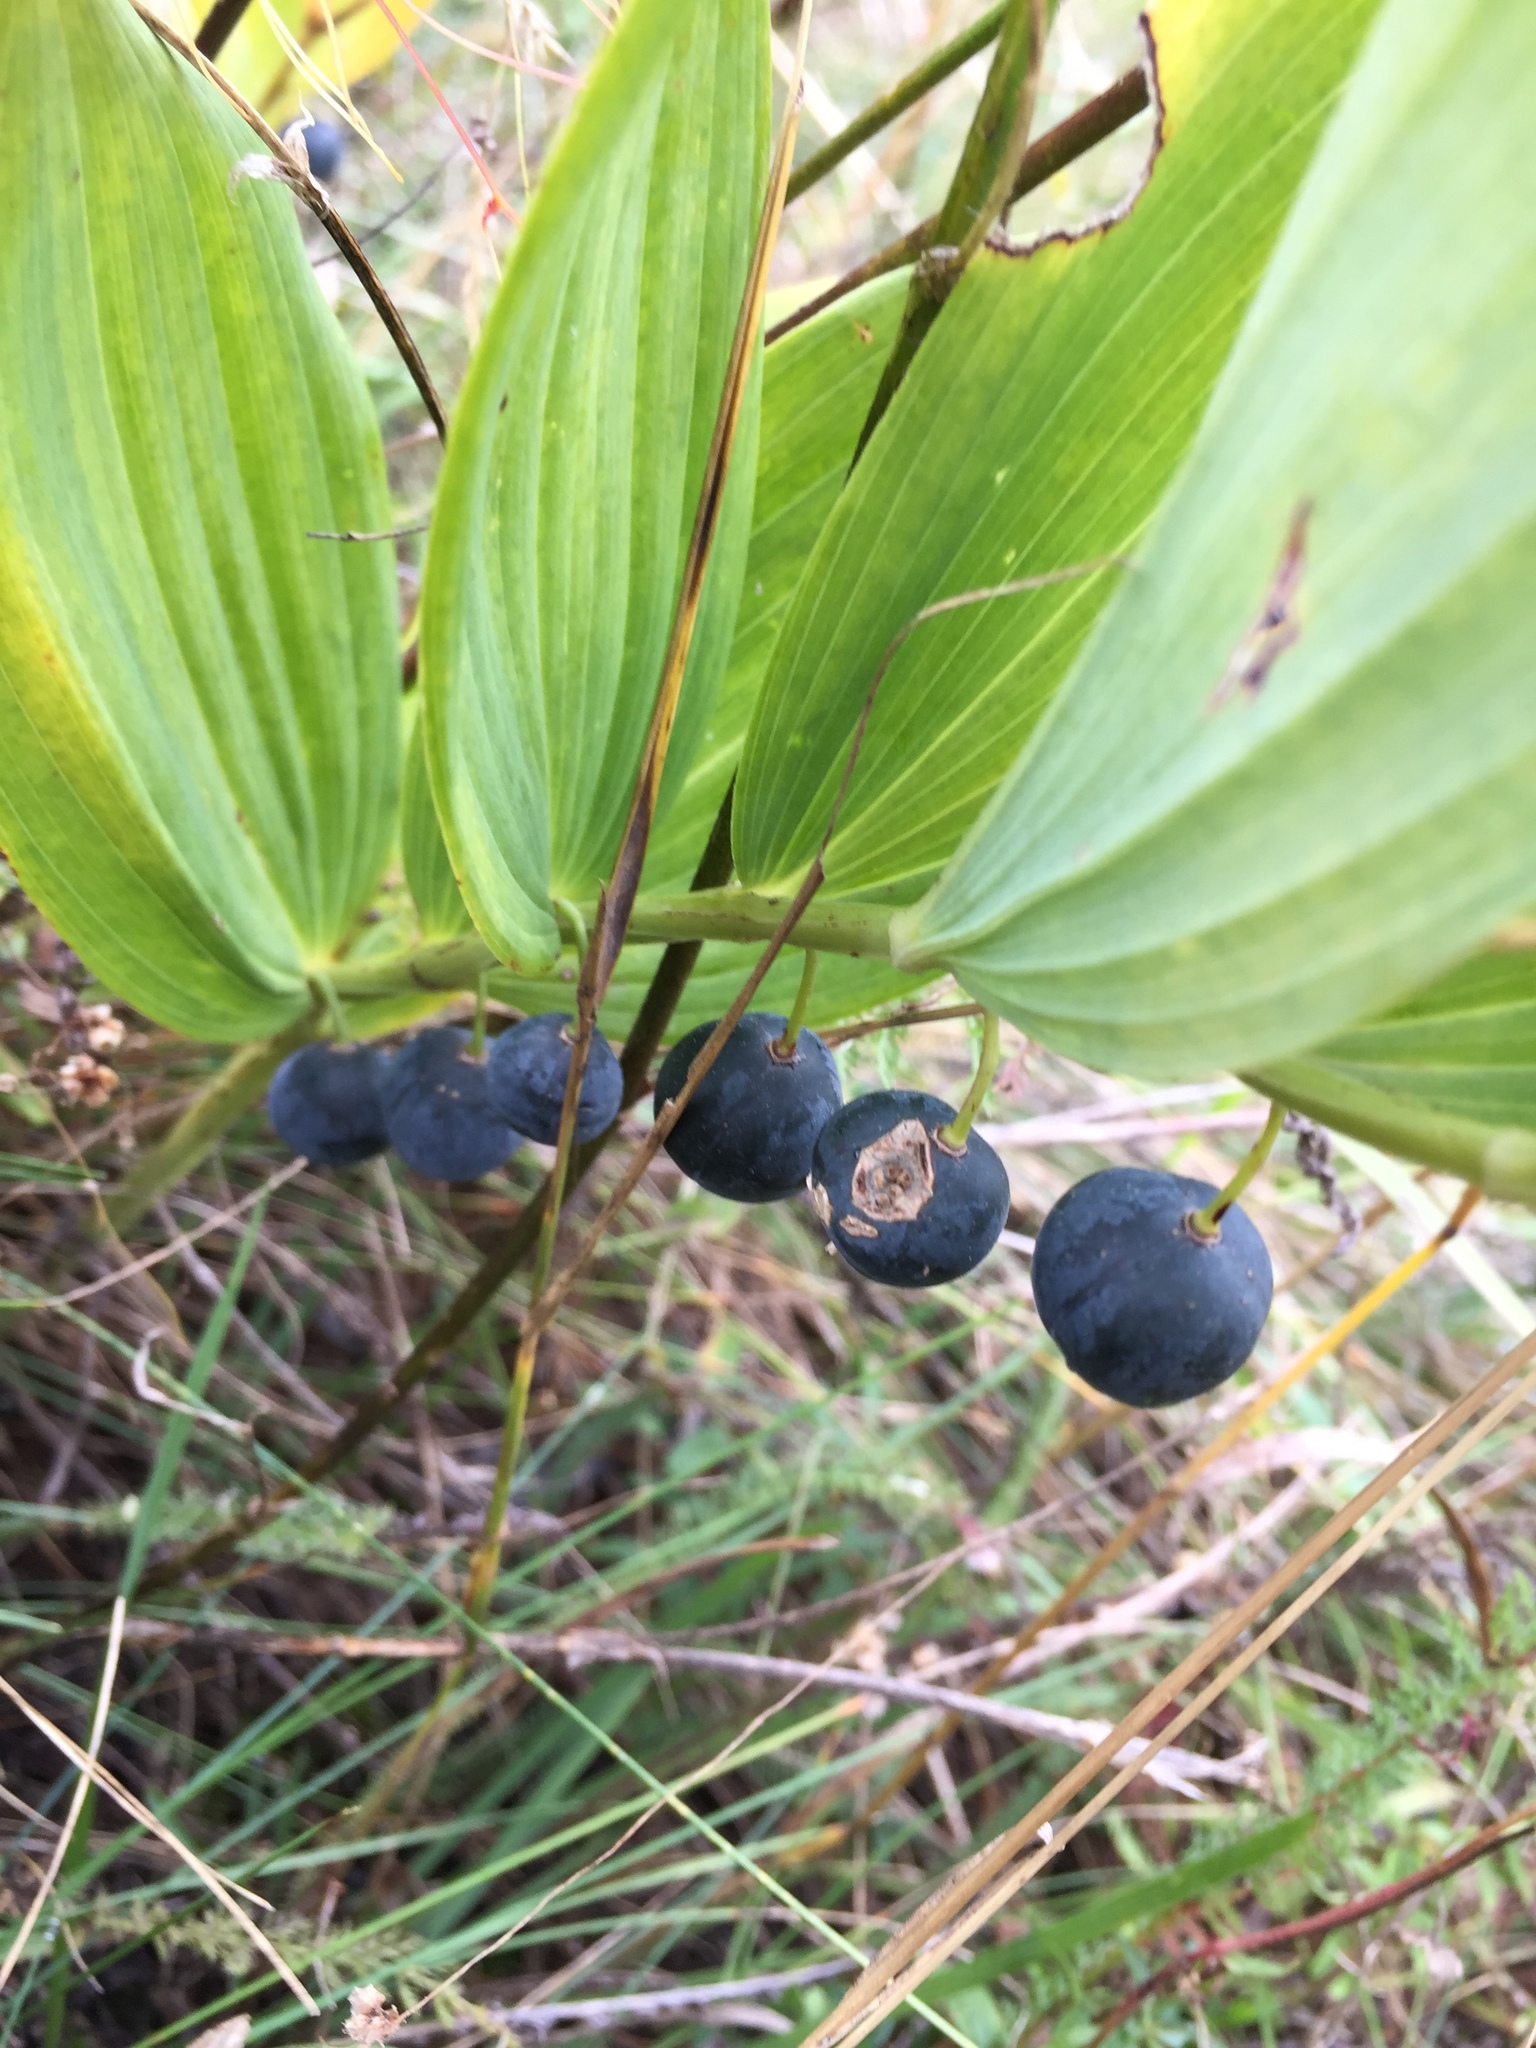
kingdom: Plantae
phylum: Tracheophyta
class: Liliopsida
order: Asparagales
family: Asparagaceae
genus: Polygonatum
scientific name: Polygonatum odoratum
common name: Angular solomon's-seal
